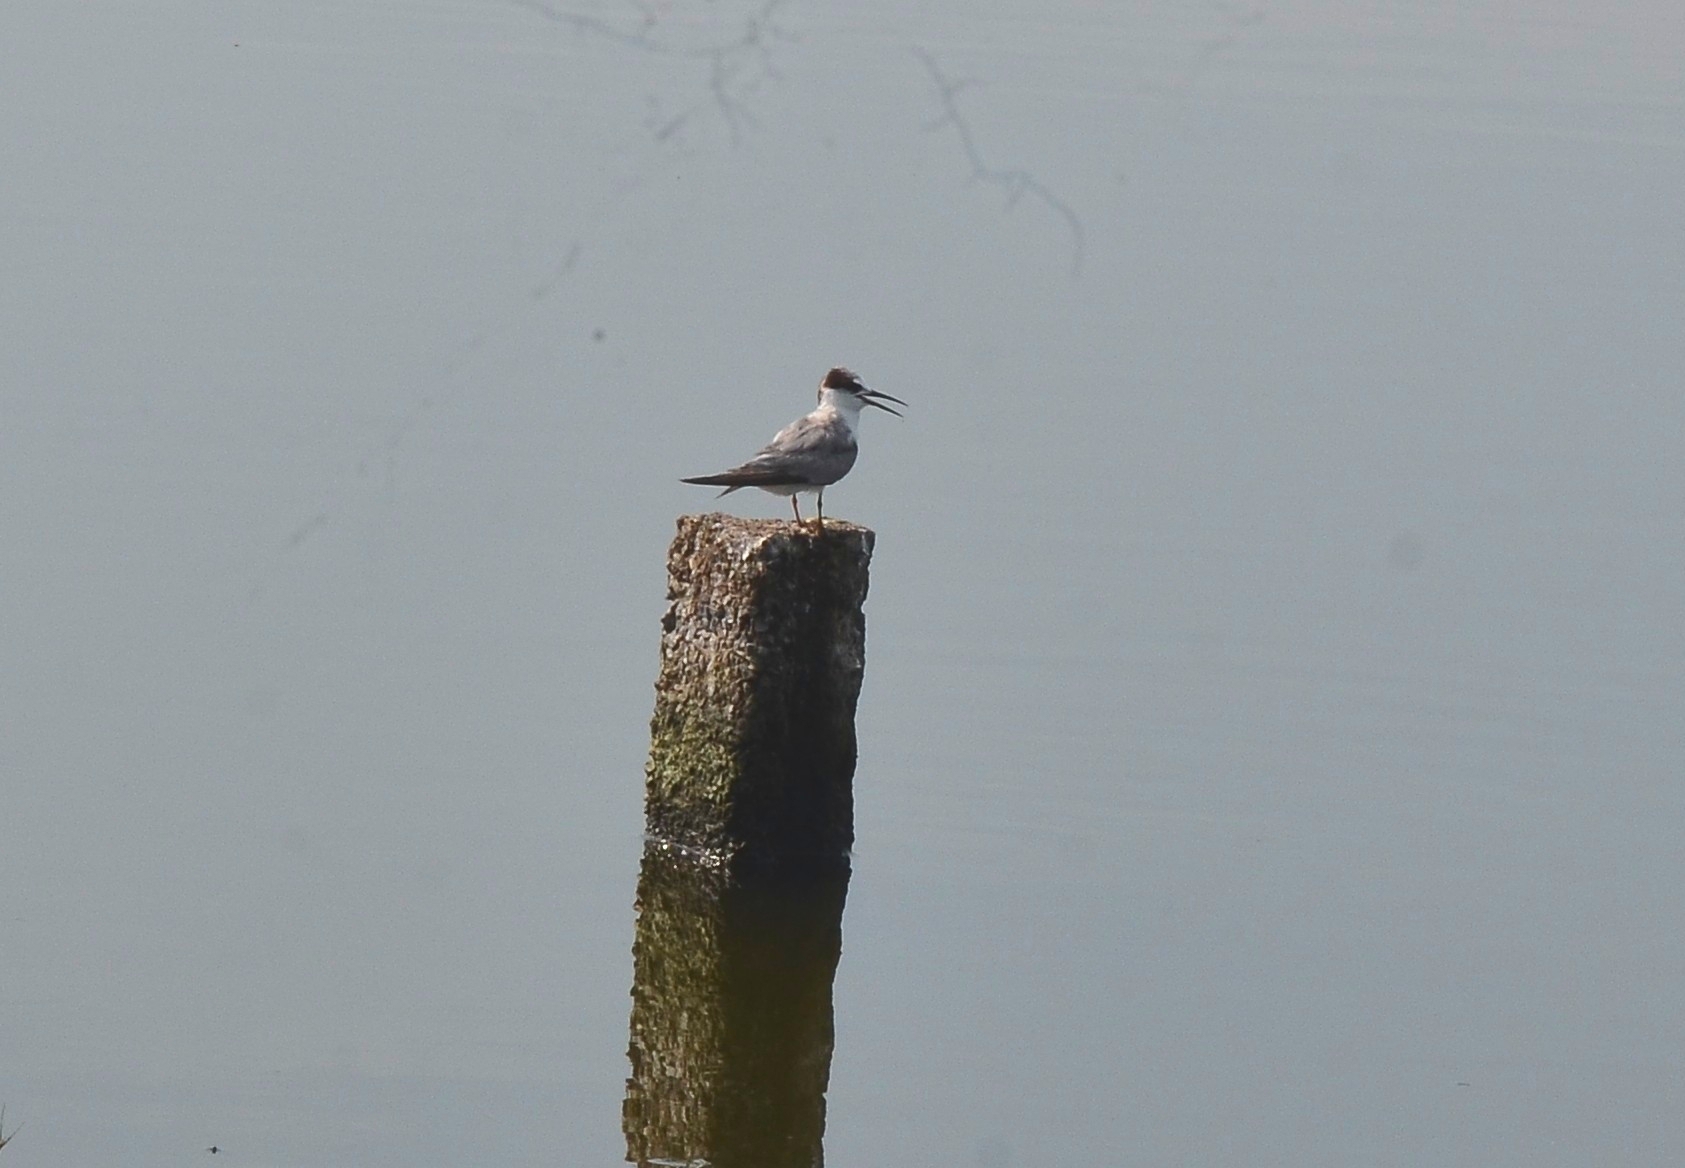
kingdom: Animalia
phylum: Chordata
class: Aves
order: Charadriiformes
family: Laridae
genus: Sternula
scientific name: Sternula albifrons
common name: Little tern
